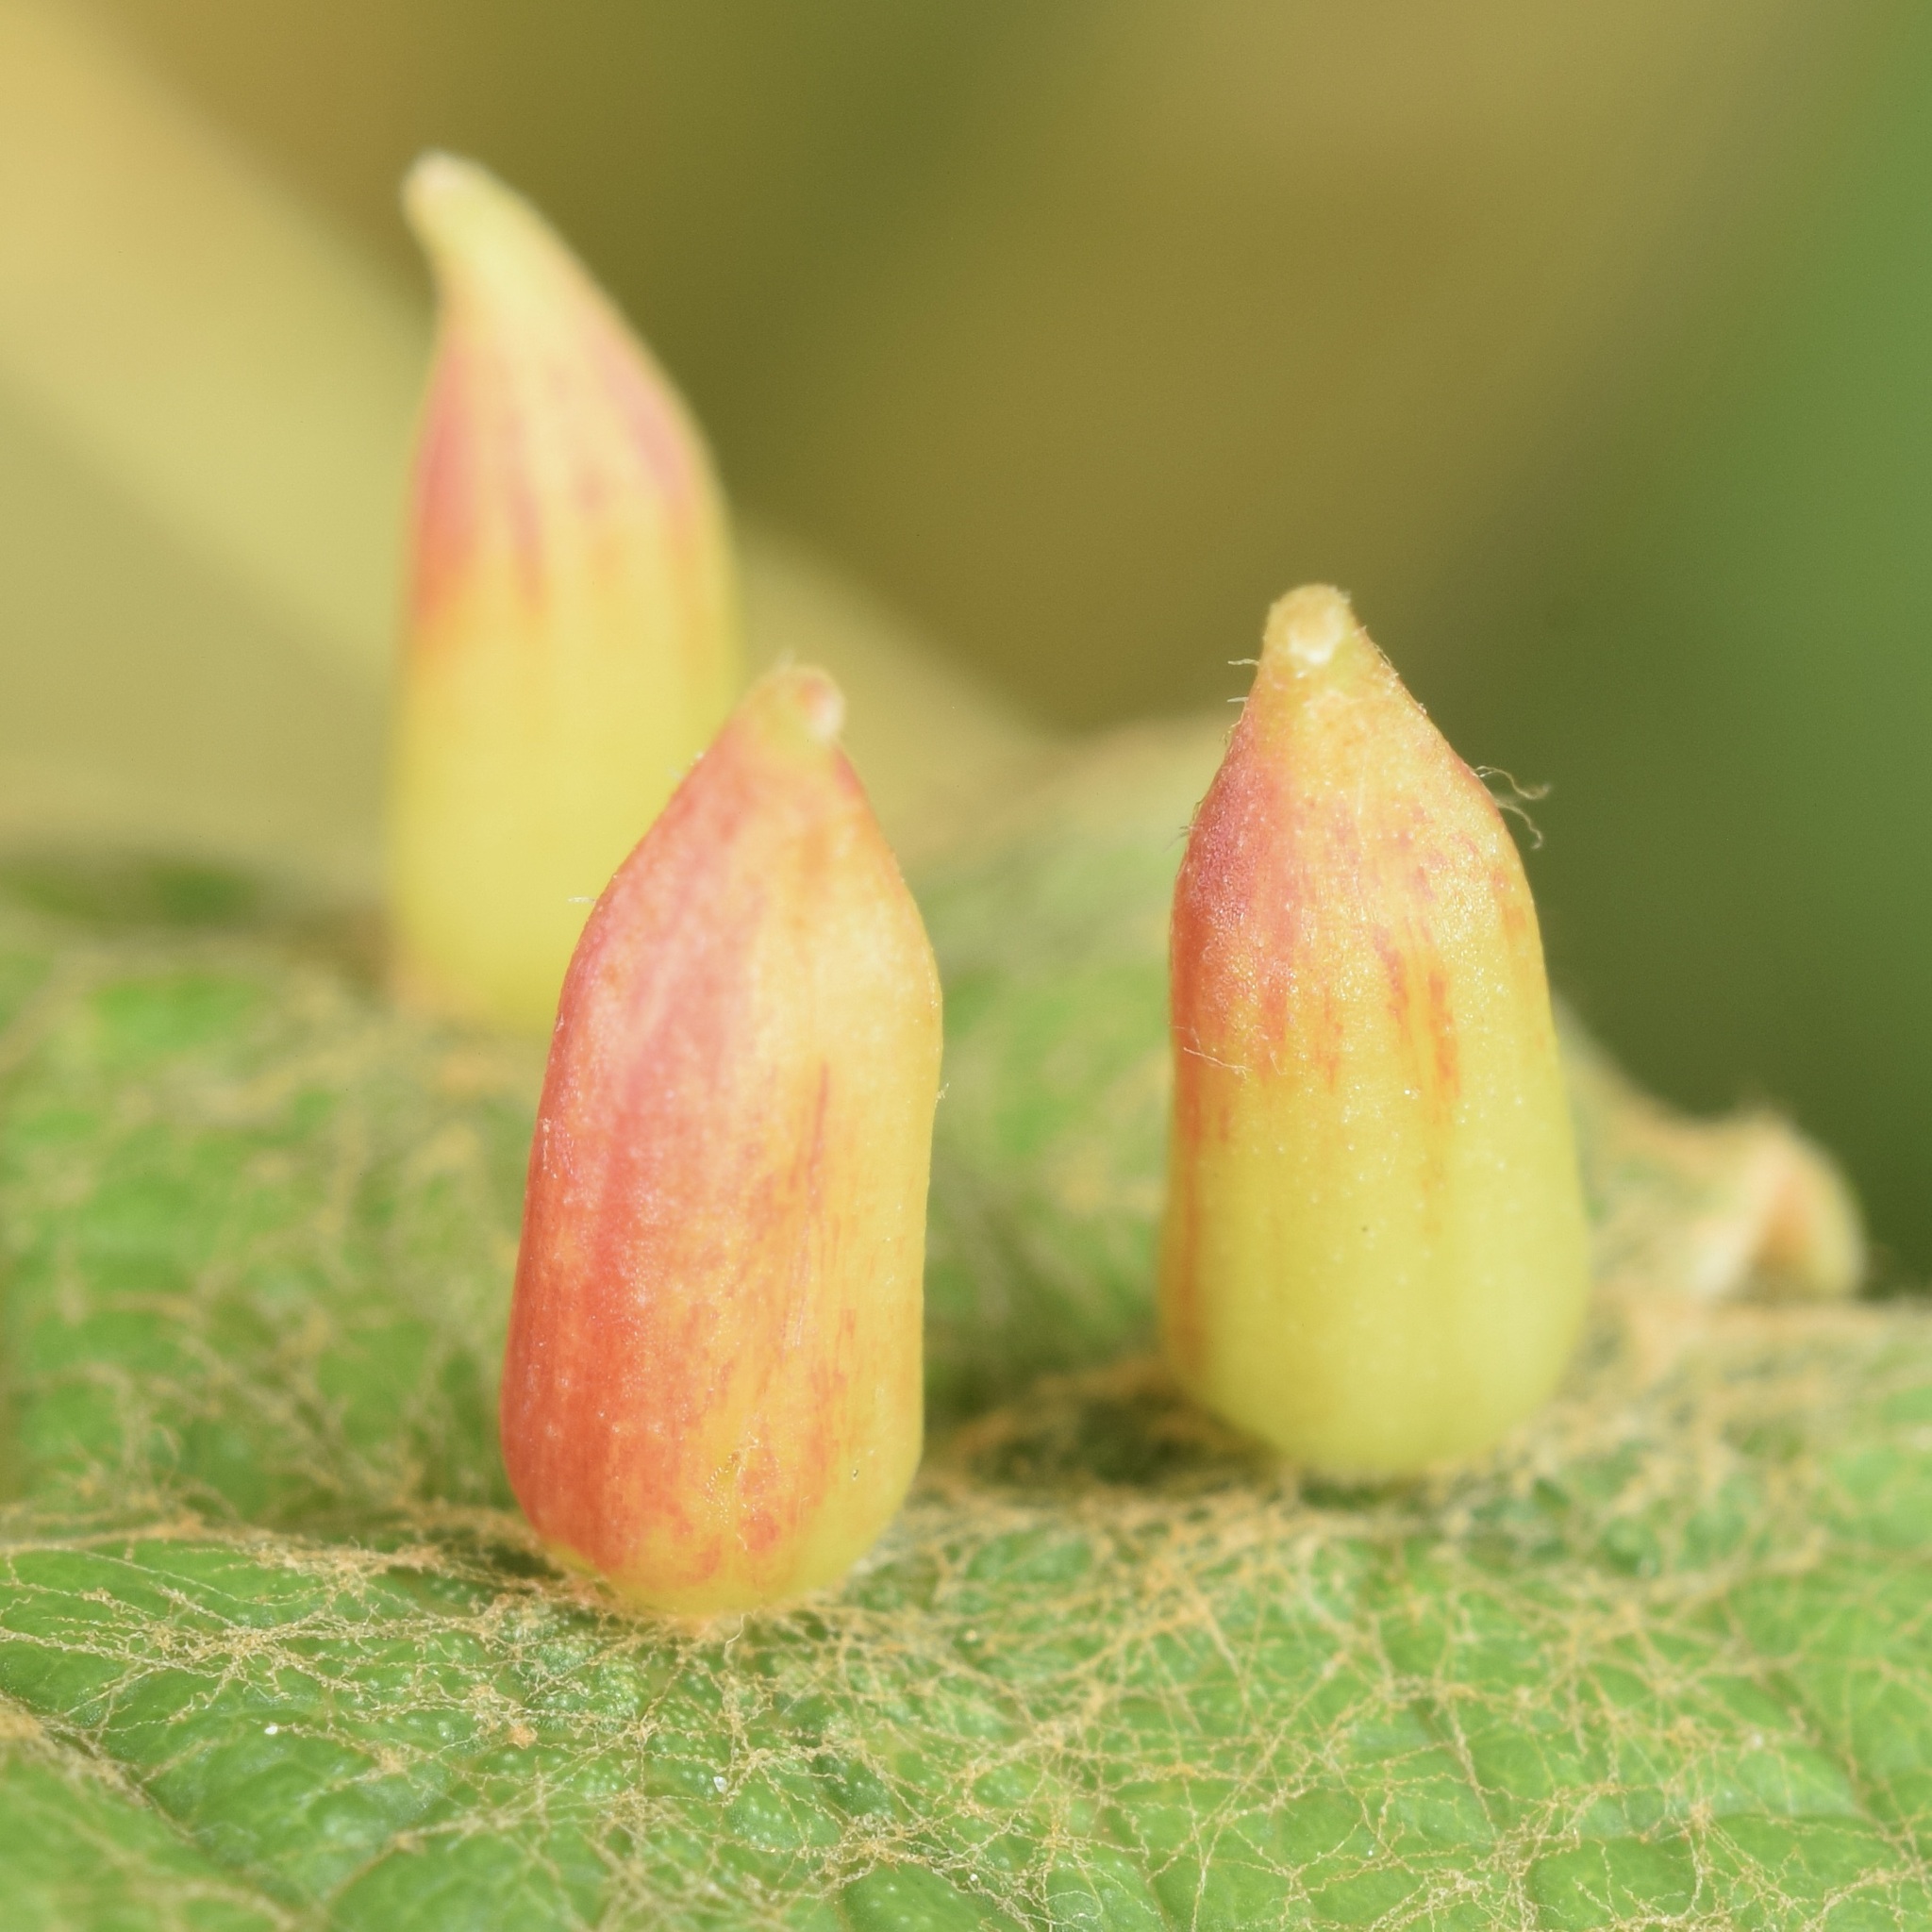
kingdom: Animalia
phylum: Arthropoda
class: Insecta
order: Diptera
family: Cecidomyiidae
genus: Ampelomyia
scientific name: Ampelomyia viticola
